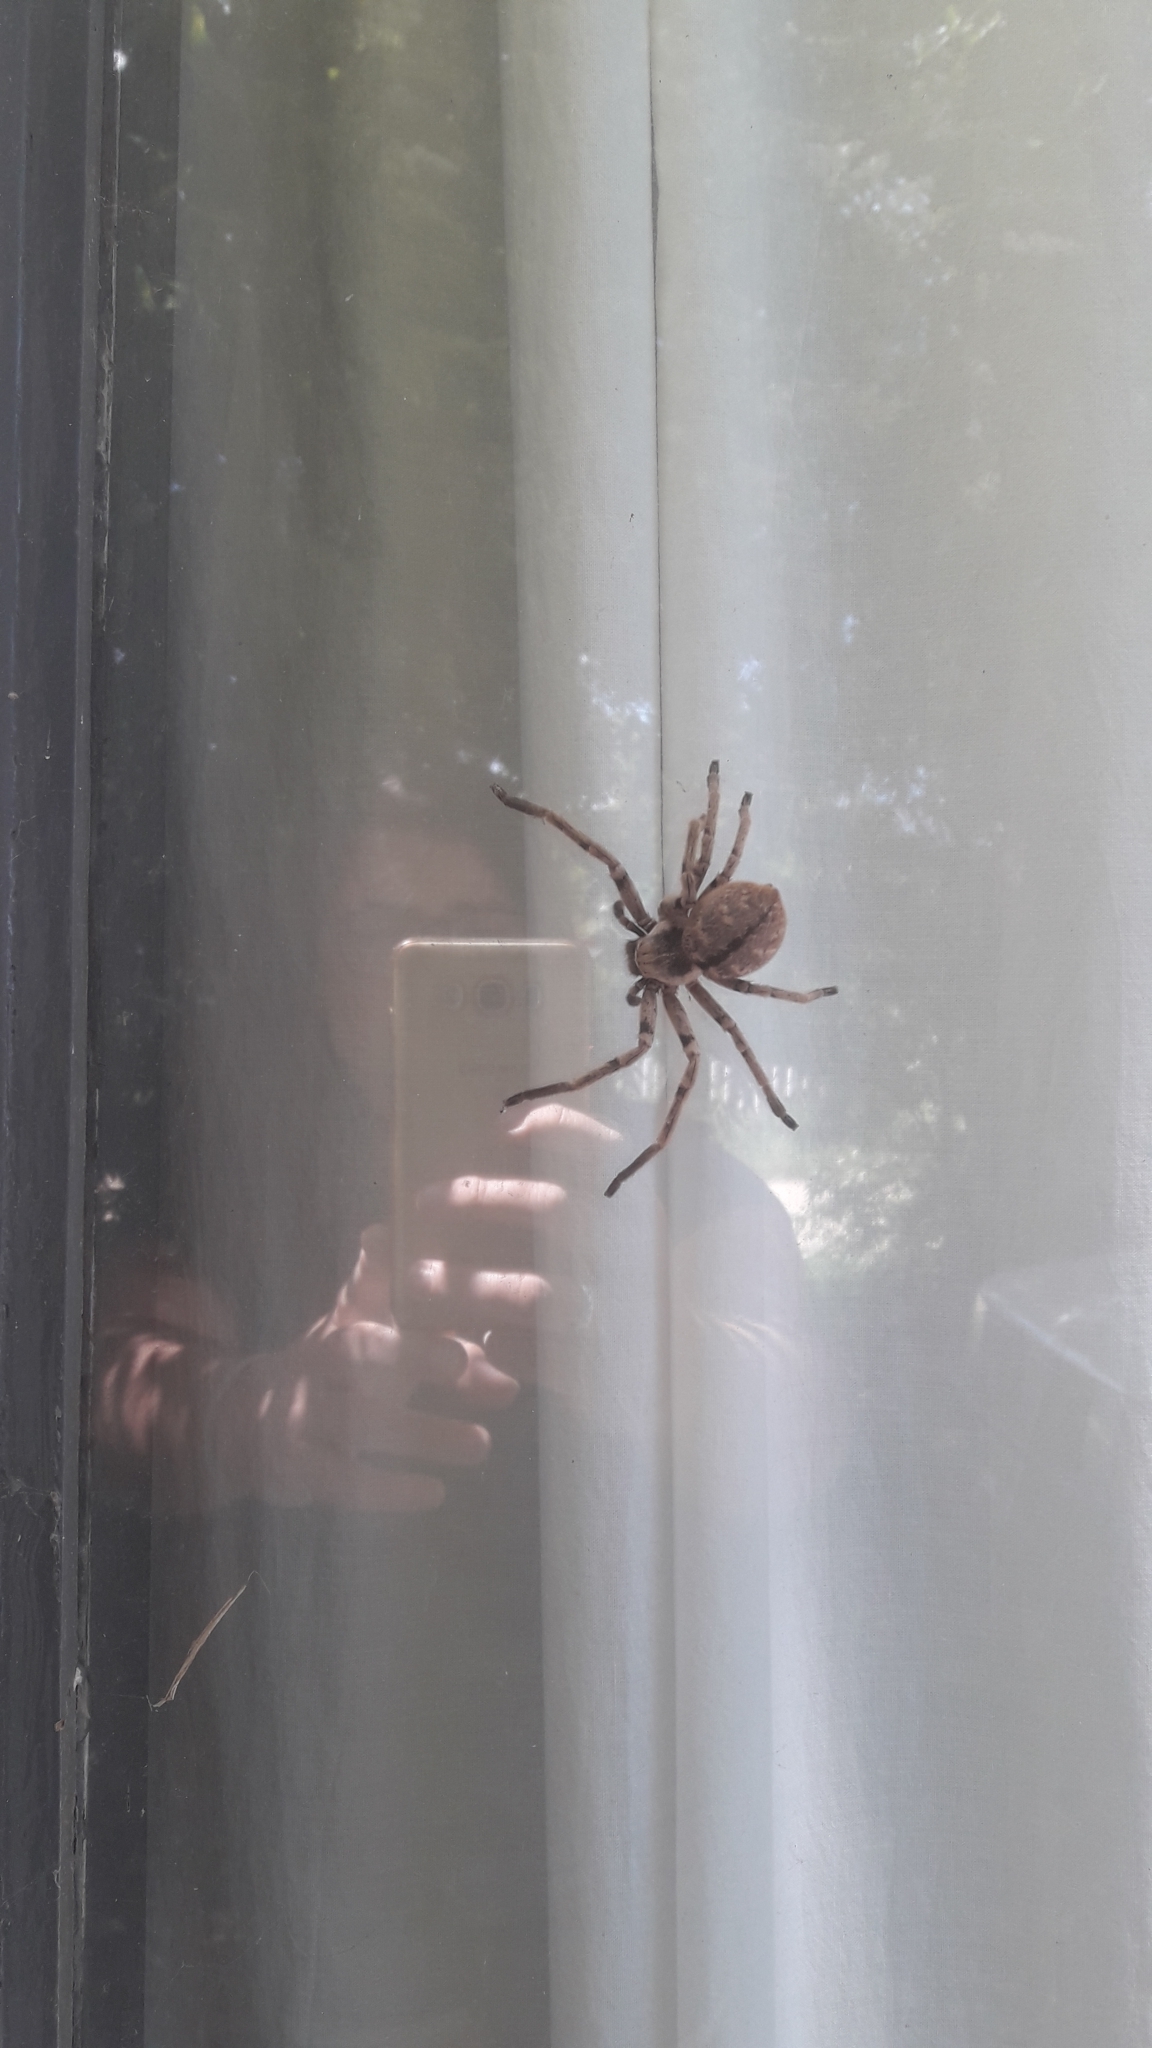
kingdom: Animalia
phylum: Arthropoda
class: Arachnida
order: Araneae
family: Sparassidae
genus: Polybetes
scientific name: Polybetes pythagoricus
